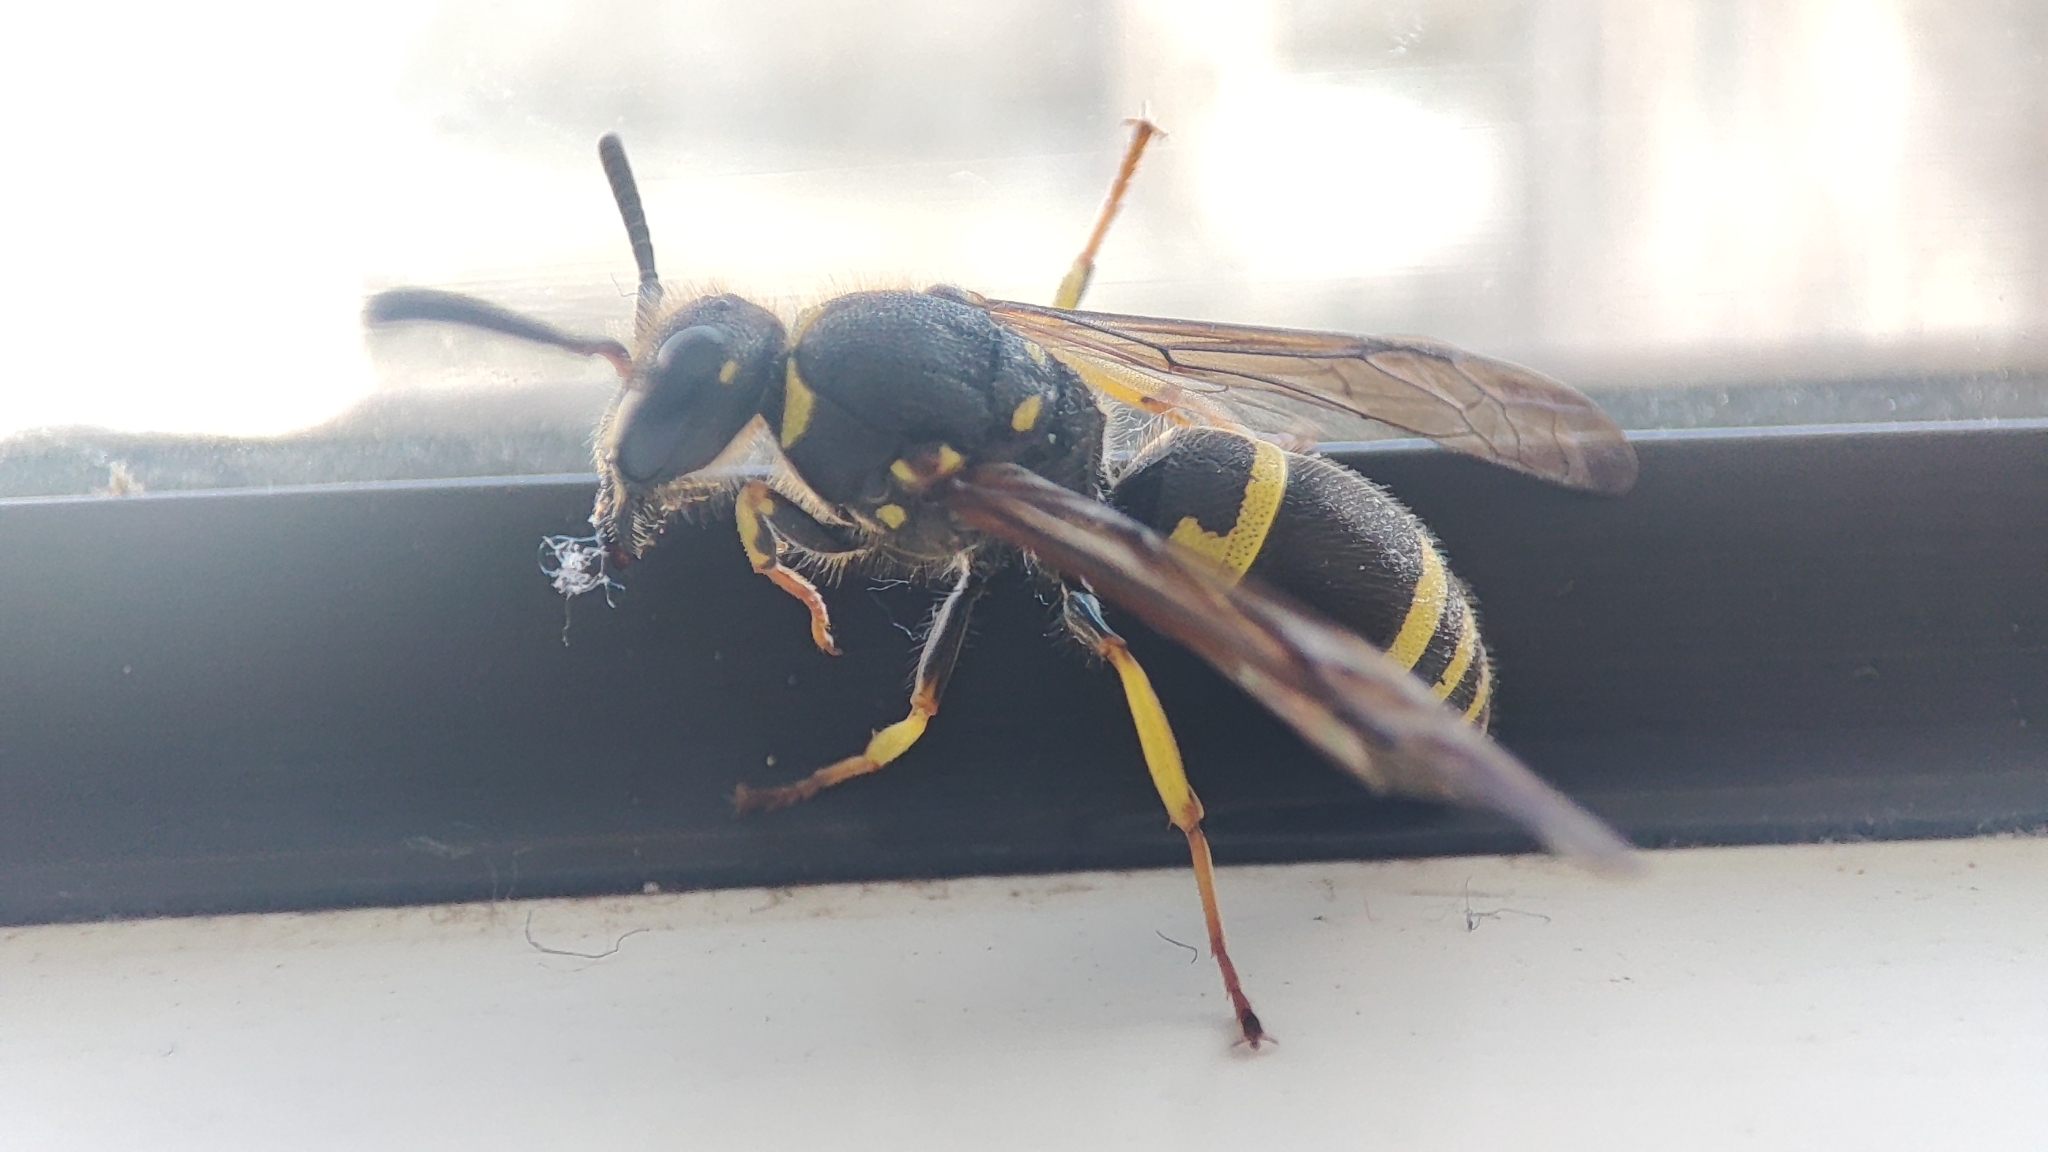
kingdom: Animalia
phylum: Arthropoda
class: Insecta
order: Hymenoptera
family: Vespidae
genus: Ancistrocerus
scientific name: Ancistrocerus nigricornis
